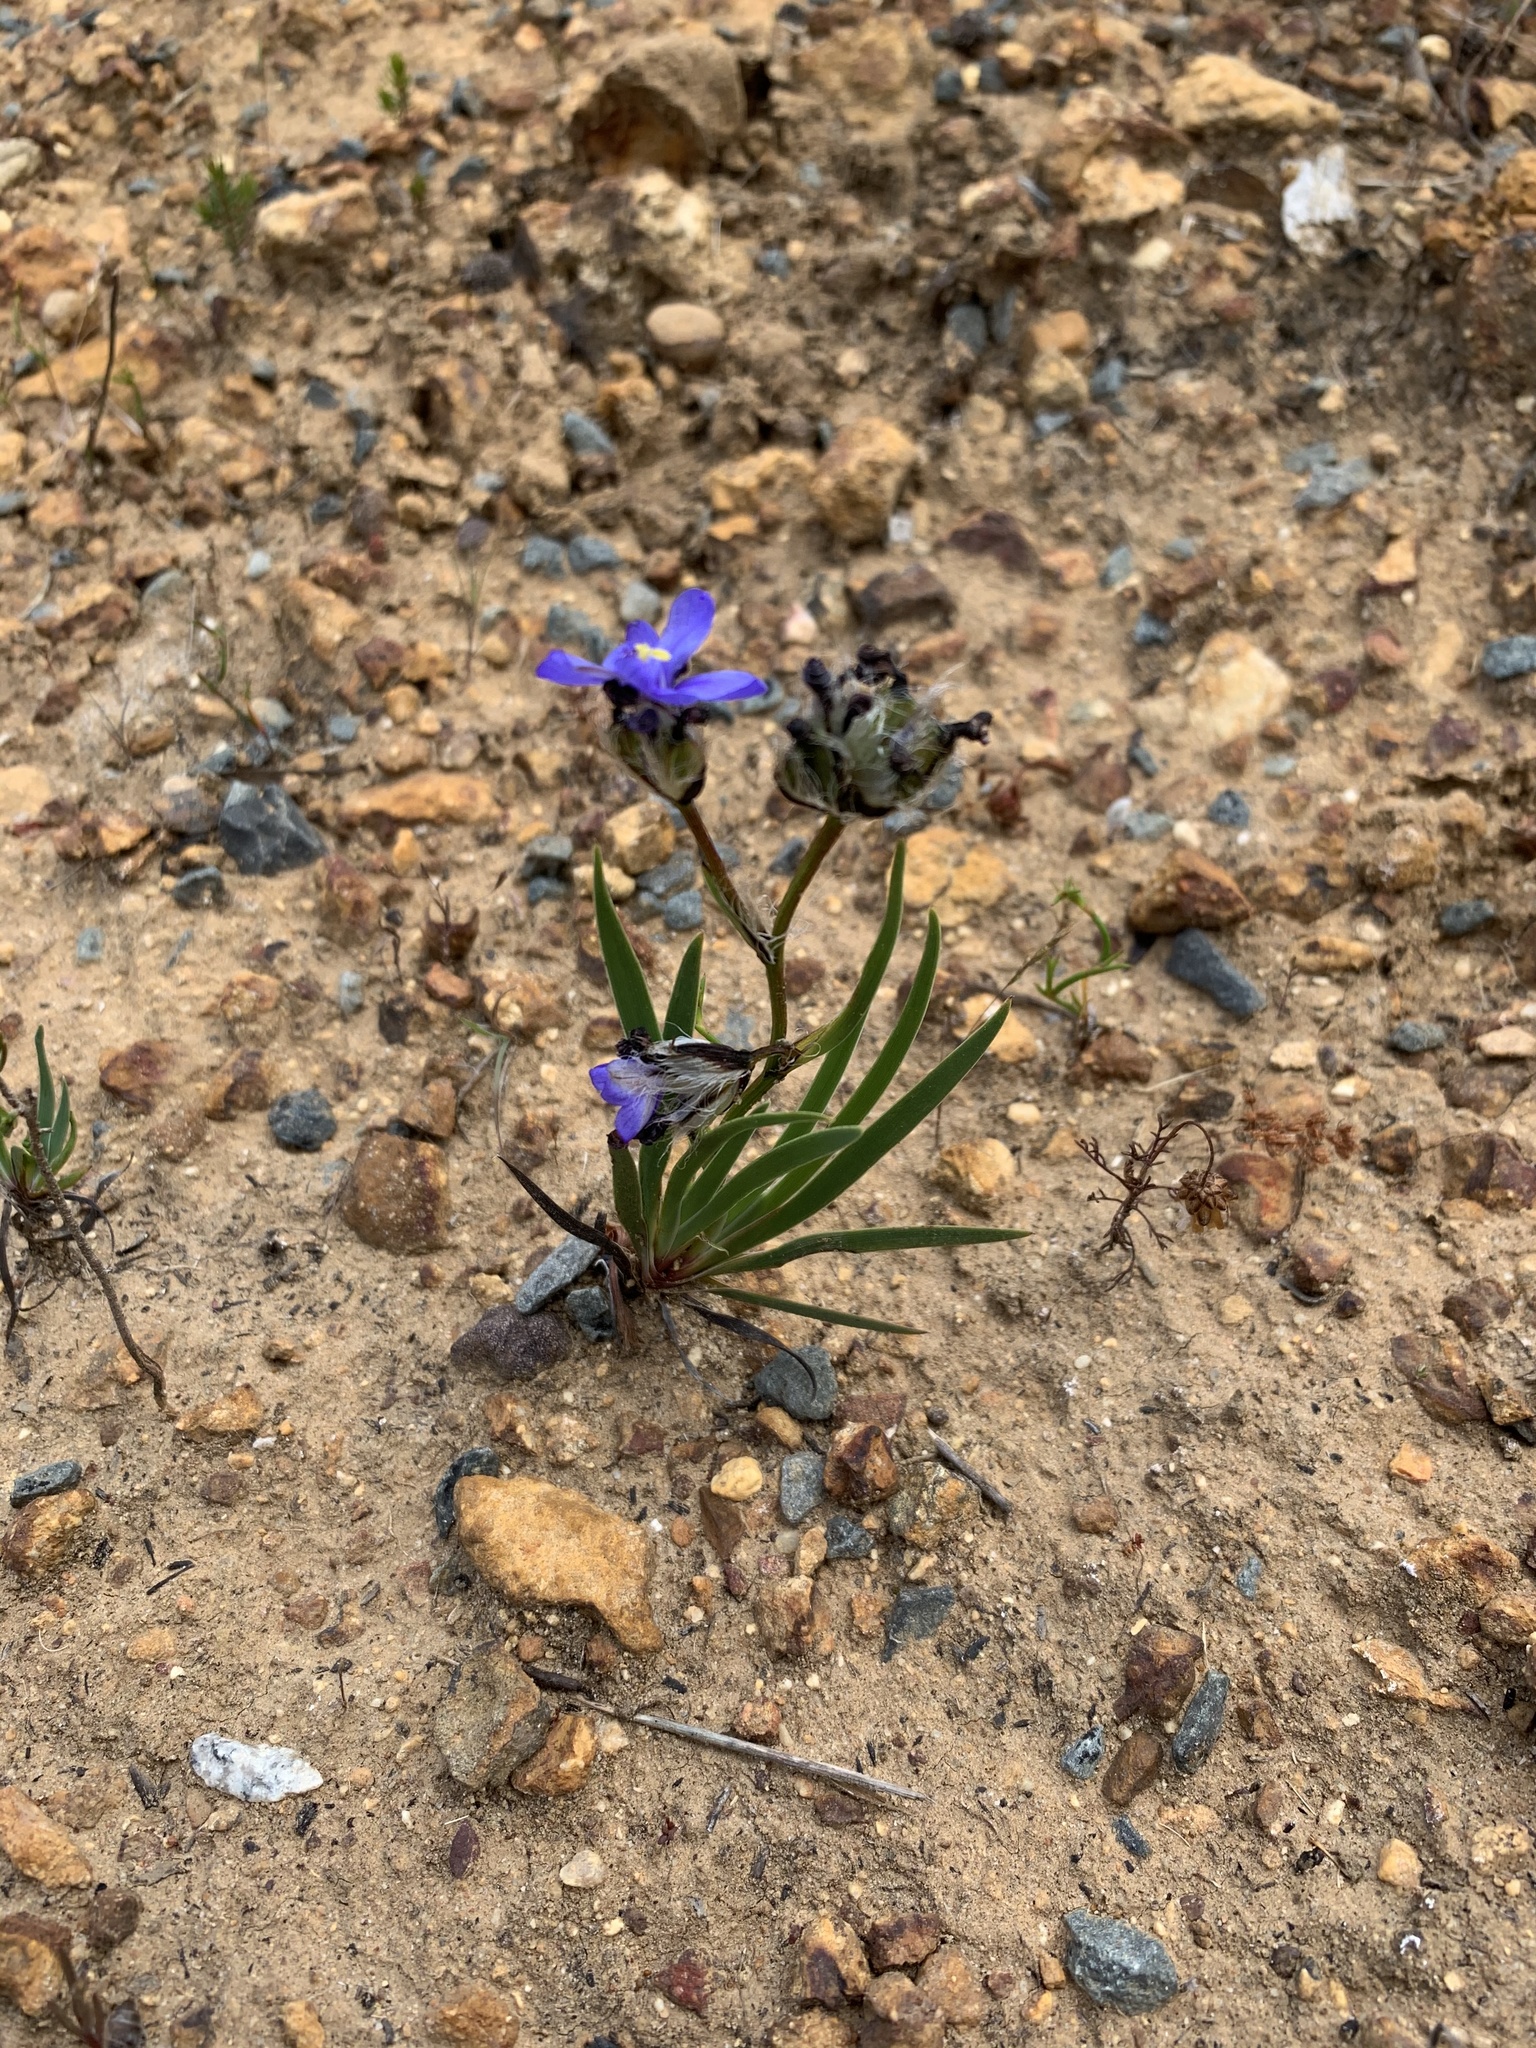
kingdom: Plantae
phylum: Tracheophyta
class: Liliopsida
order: Asparagales
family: Iridaceae
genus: Aristea
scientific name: Aristea africana
